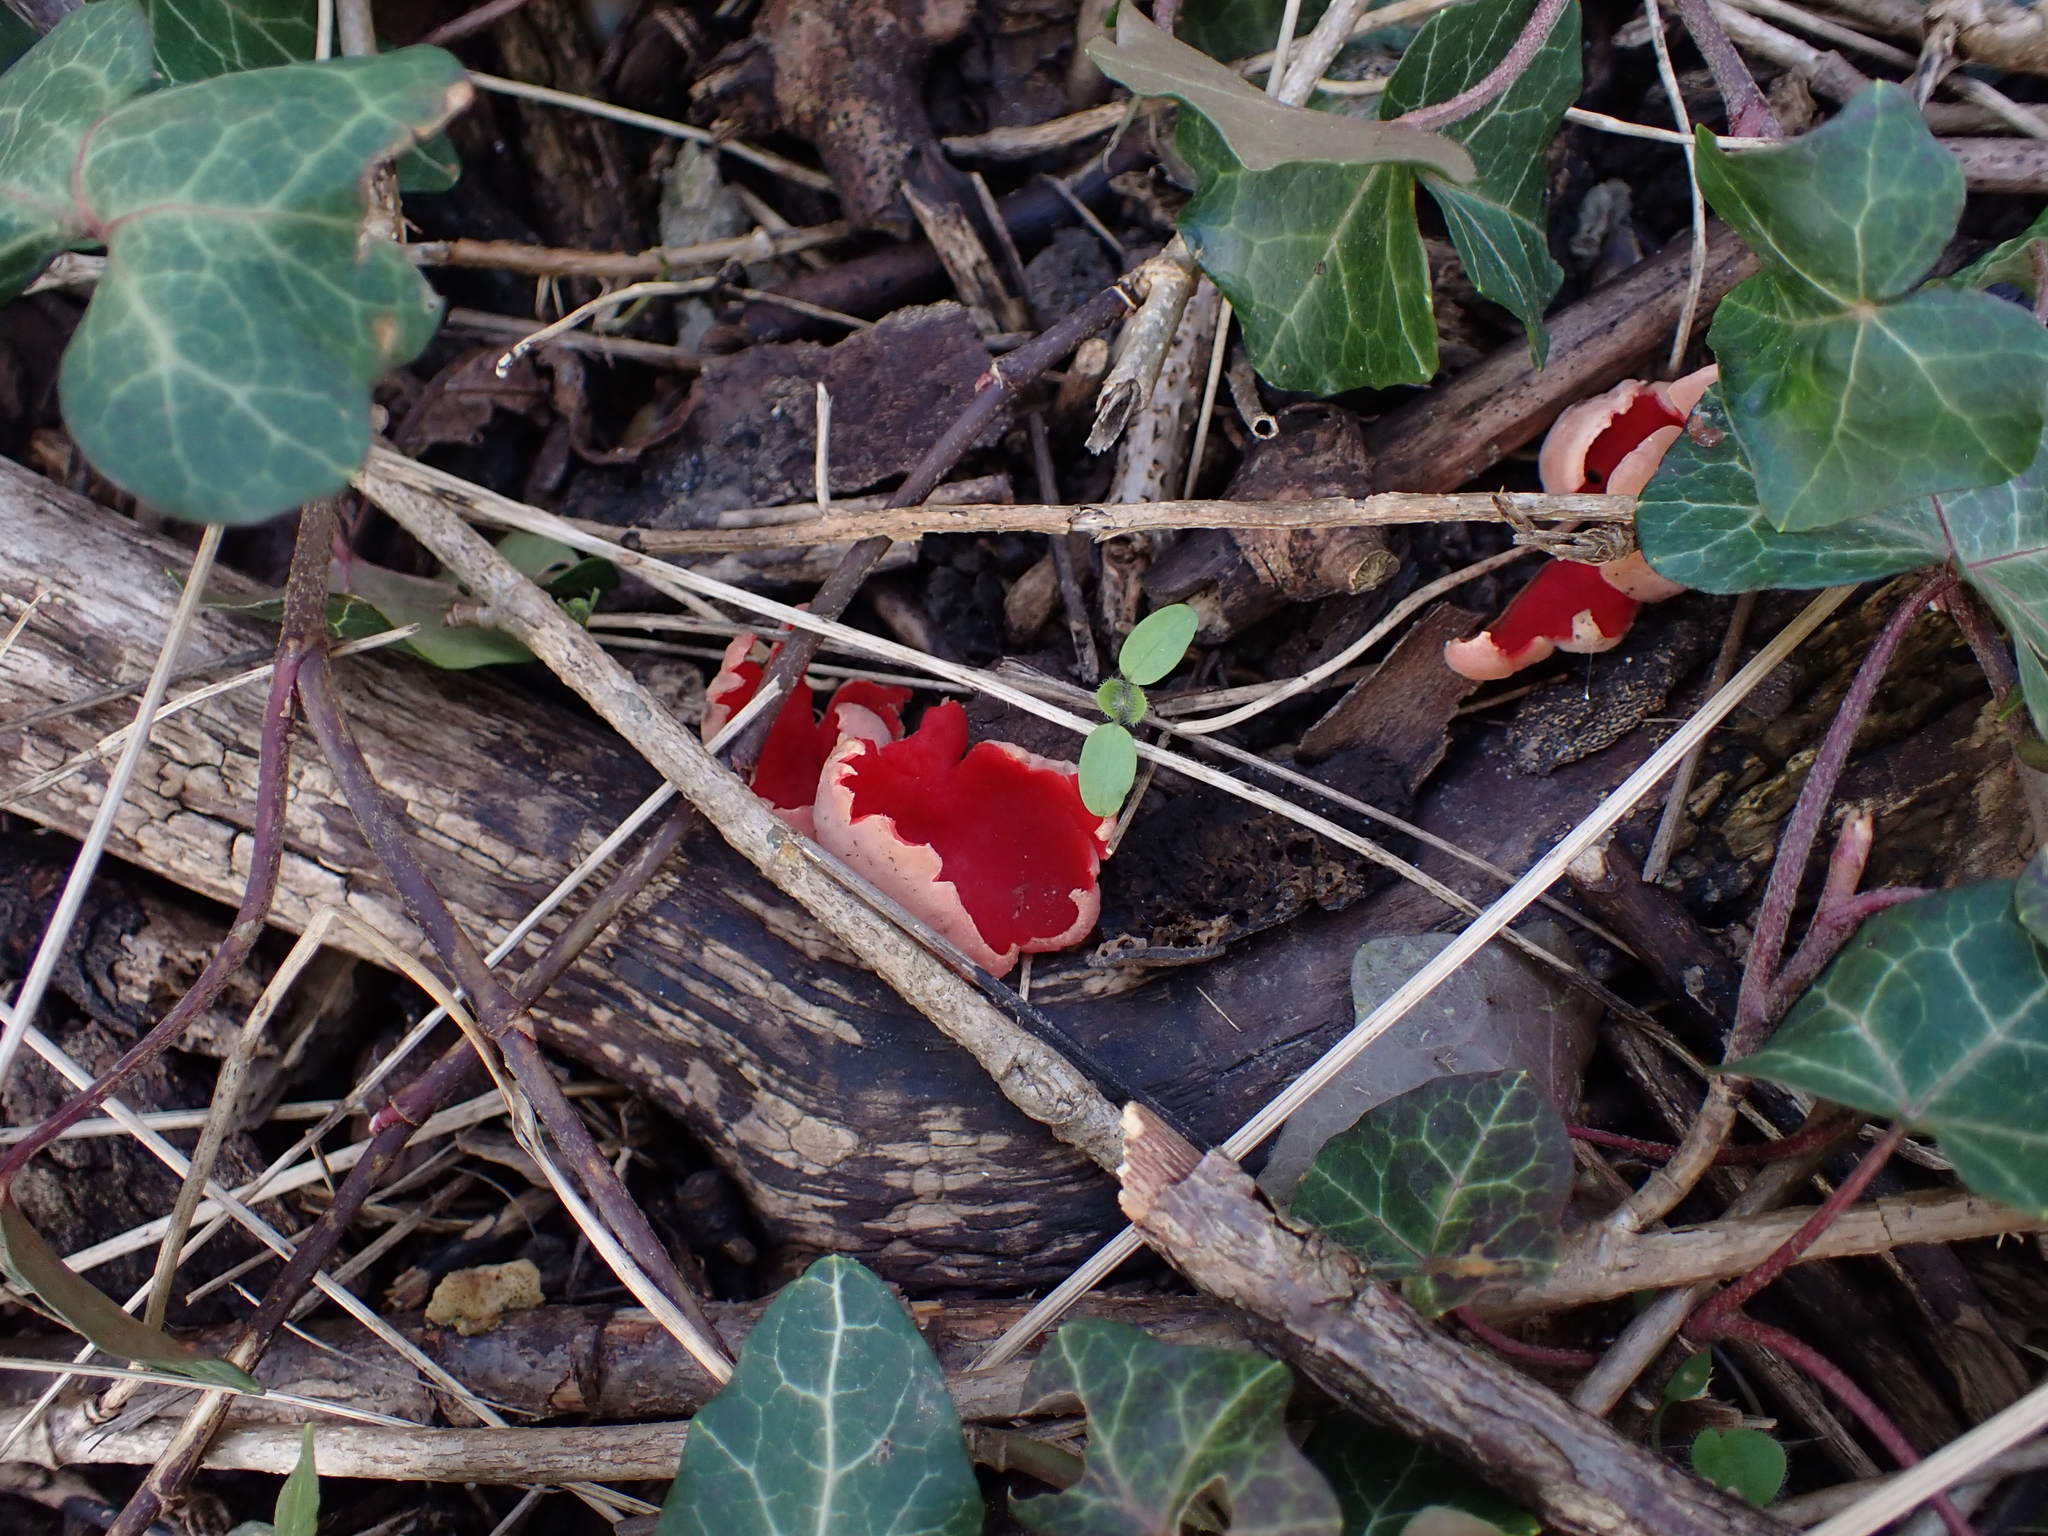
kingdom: Fungi
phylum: Ascomycota
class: Pezizomycetes
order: Pezizales
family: Sarcoscyphaceae
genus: Sarcoscypha
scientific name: Sarcoscypha austriaca
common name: Scarlet elfcup
